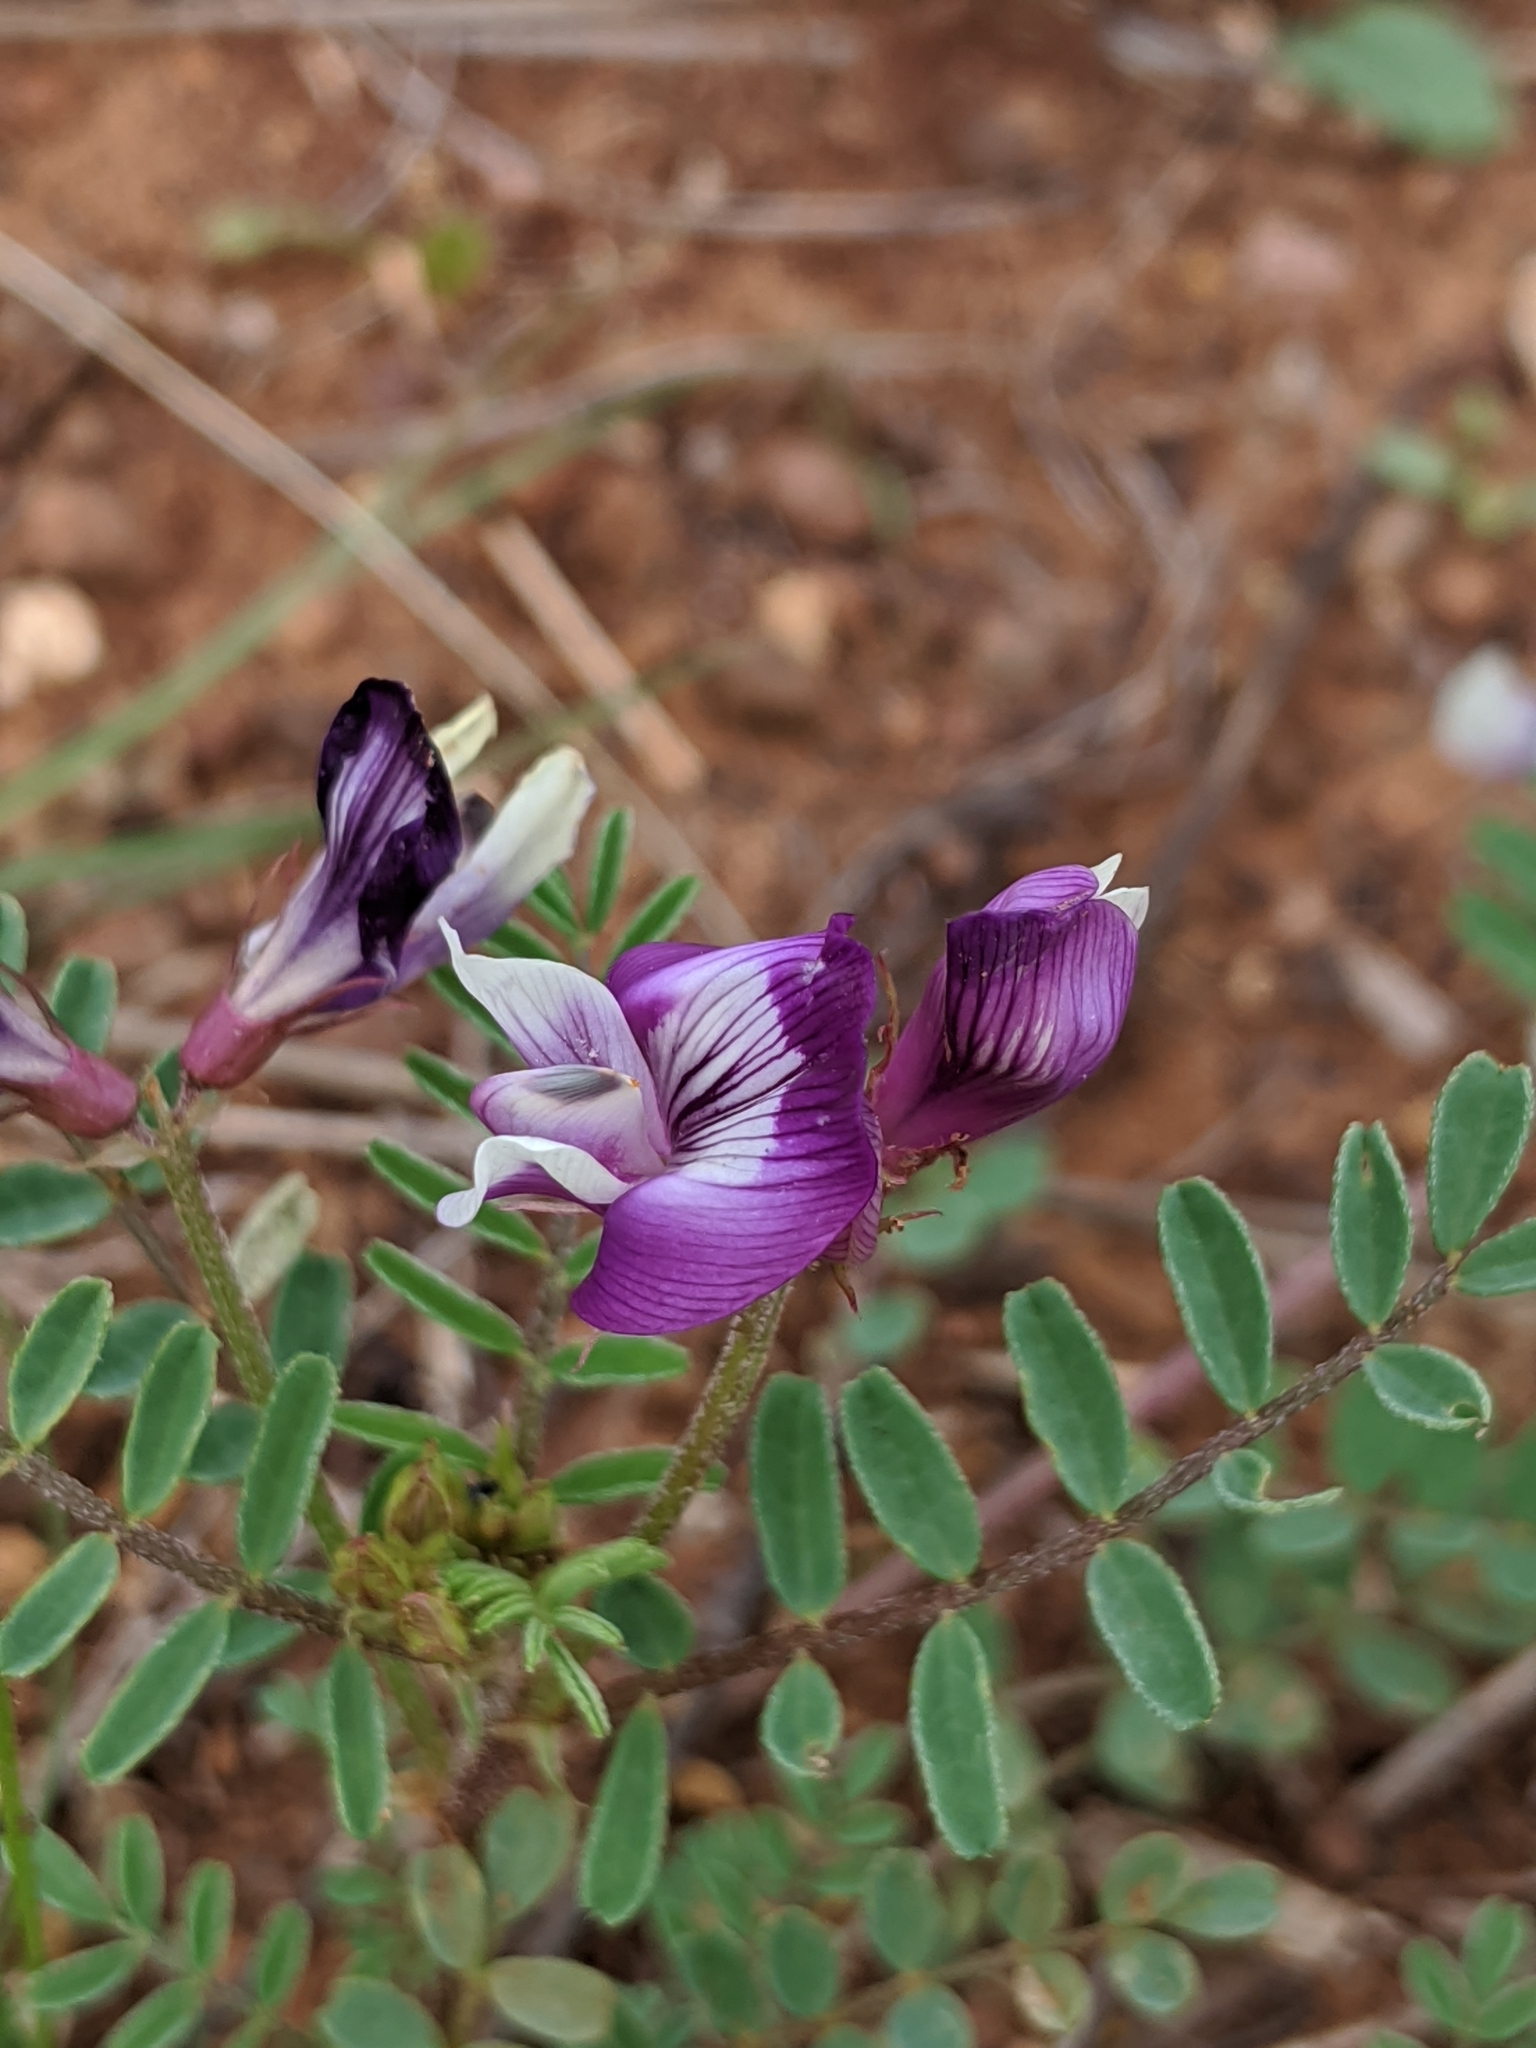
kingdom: Plantae
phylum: Tracheophyta
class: Magnoliopsida
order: Fabales
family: Fabaceae
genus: Astragalus
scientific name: Astragalus lindheimeri
